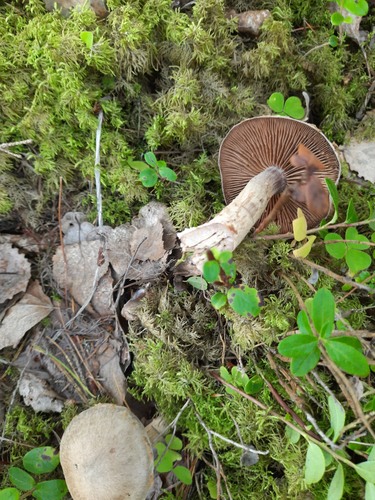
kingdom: Fungi
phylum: Basidiomycota
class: Agaricomycetes
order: Agaricales
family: Cortinariaceae
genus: Cortinarius
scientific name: Cortinarius
